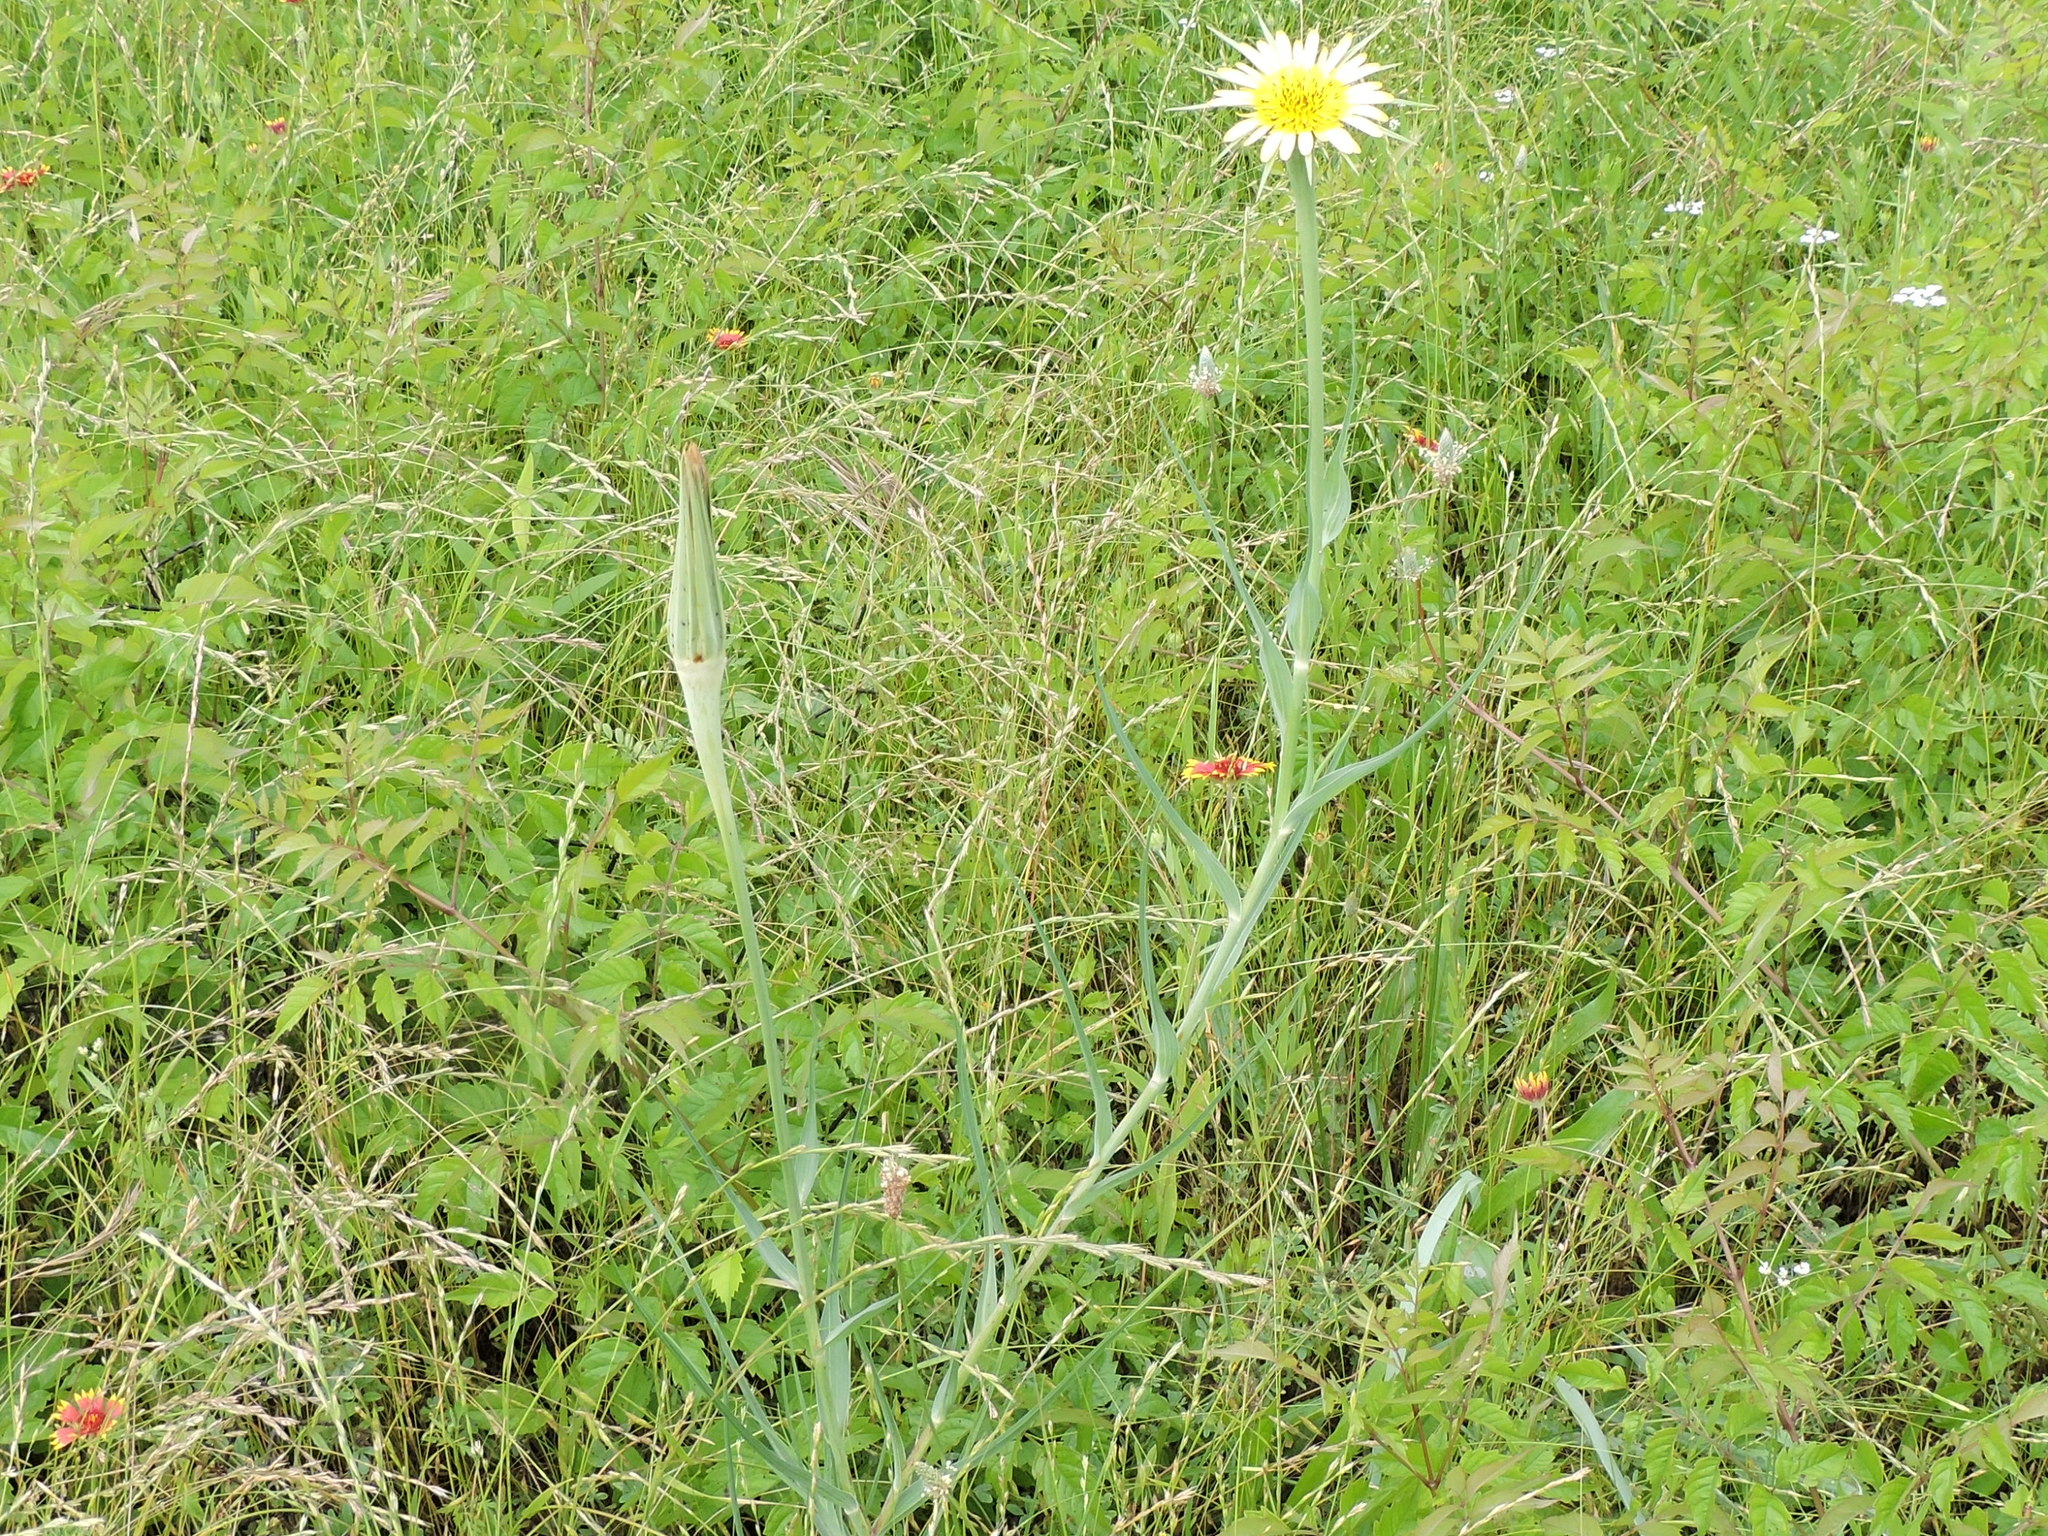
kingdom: Plantae
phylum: Tracheophyta
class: Magnoliopsida
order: Asterales
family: Asteraceae
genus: Tragopogon
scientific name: Tragopogon dubius
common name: Yellow salsify
